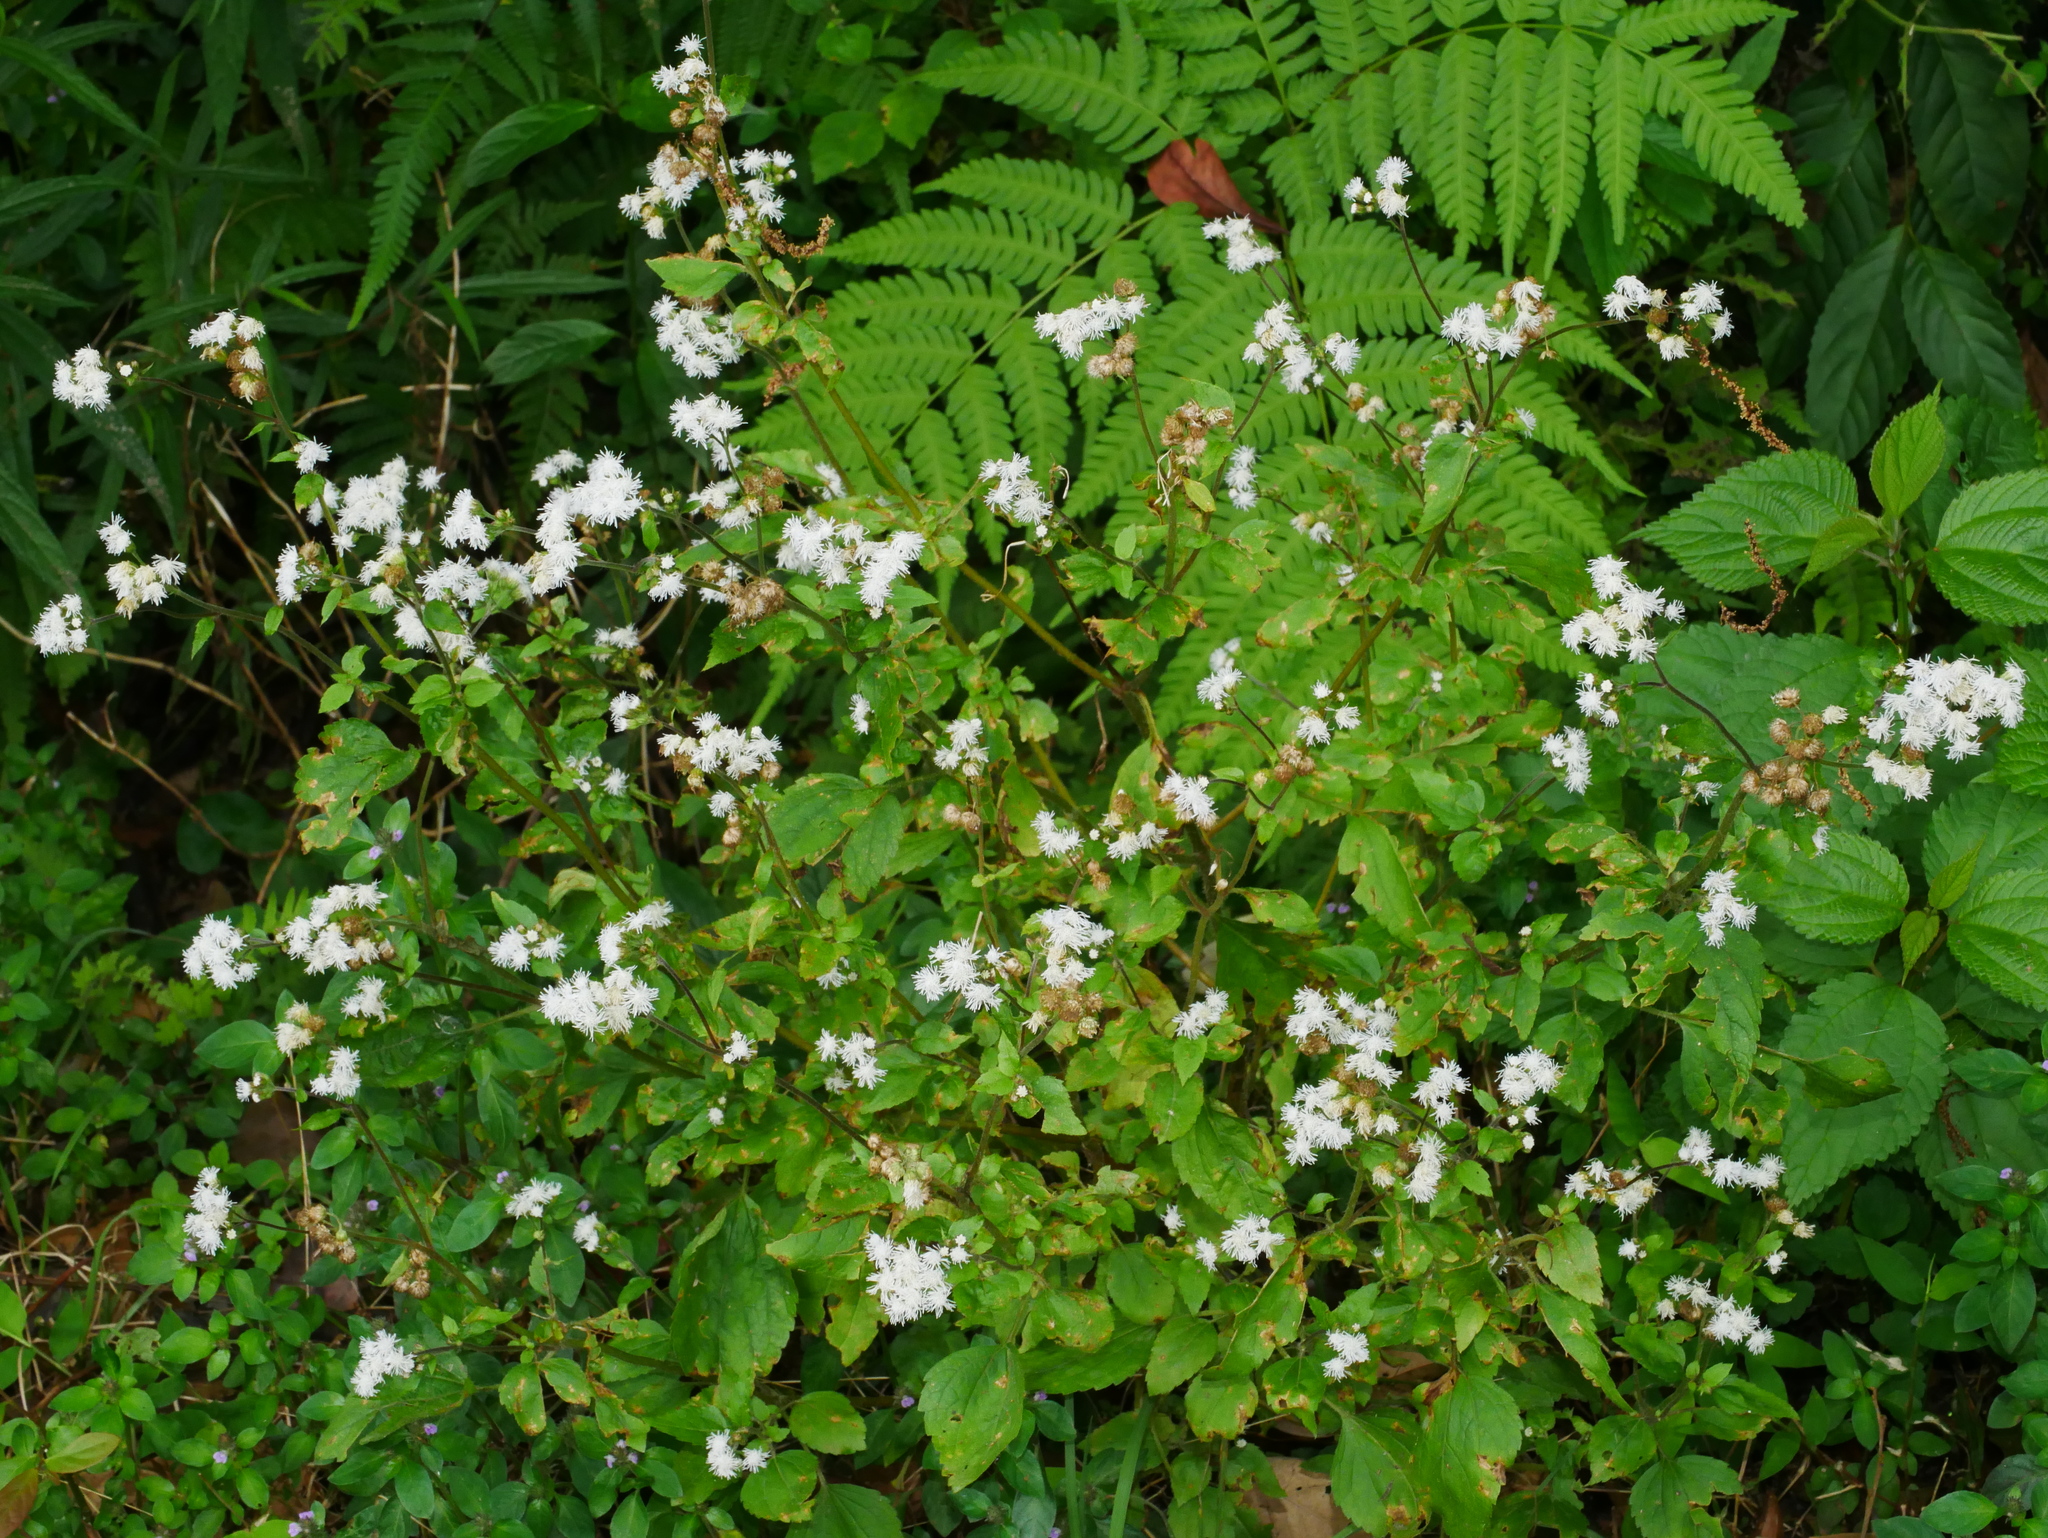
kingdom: Plantae
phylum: Tracheophyta
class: Magnoliopsida
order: Asterales
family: Asteraceae
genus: Ageratum
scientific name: Ageratum conyzoides
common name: Tropical whiteweed
